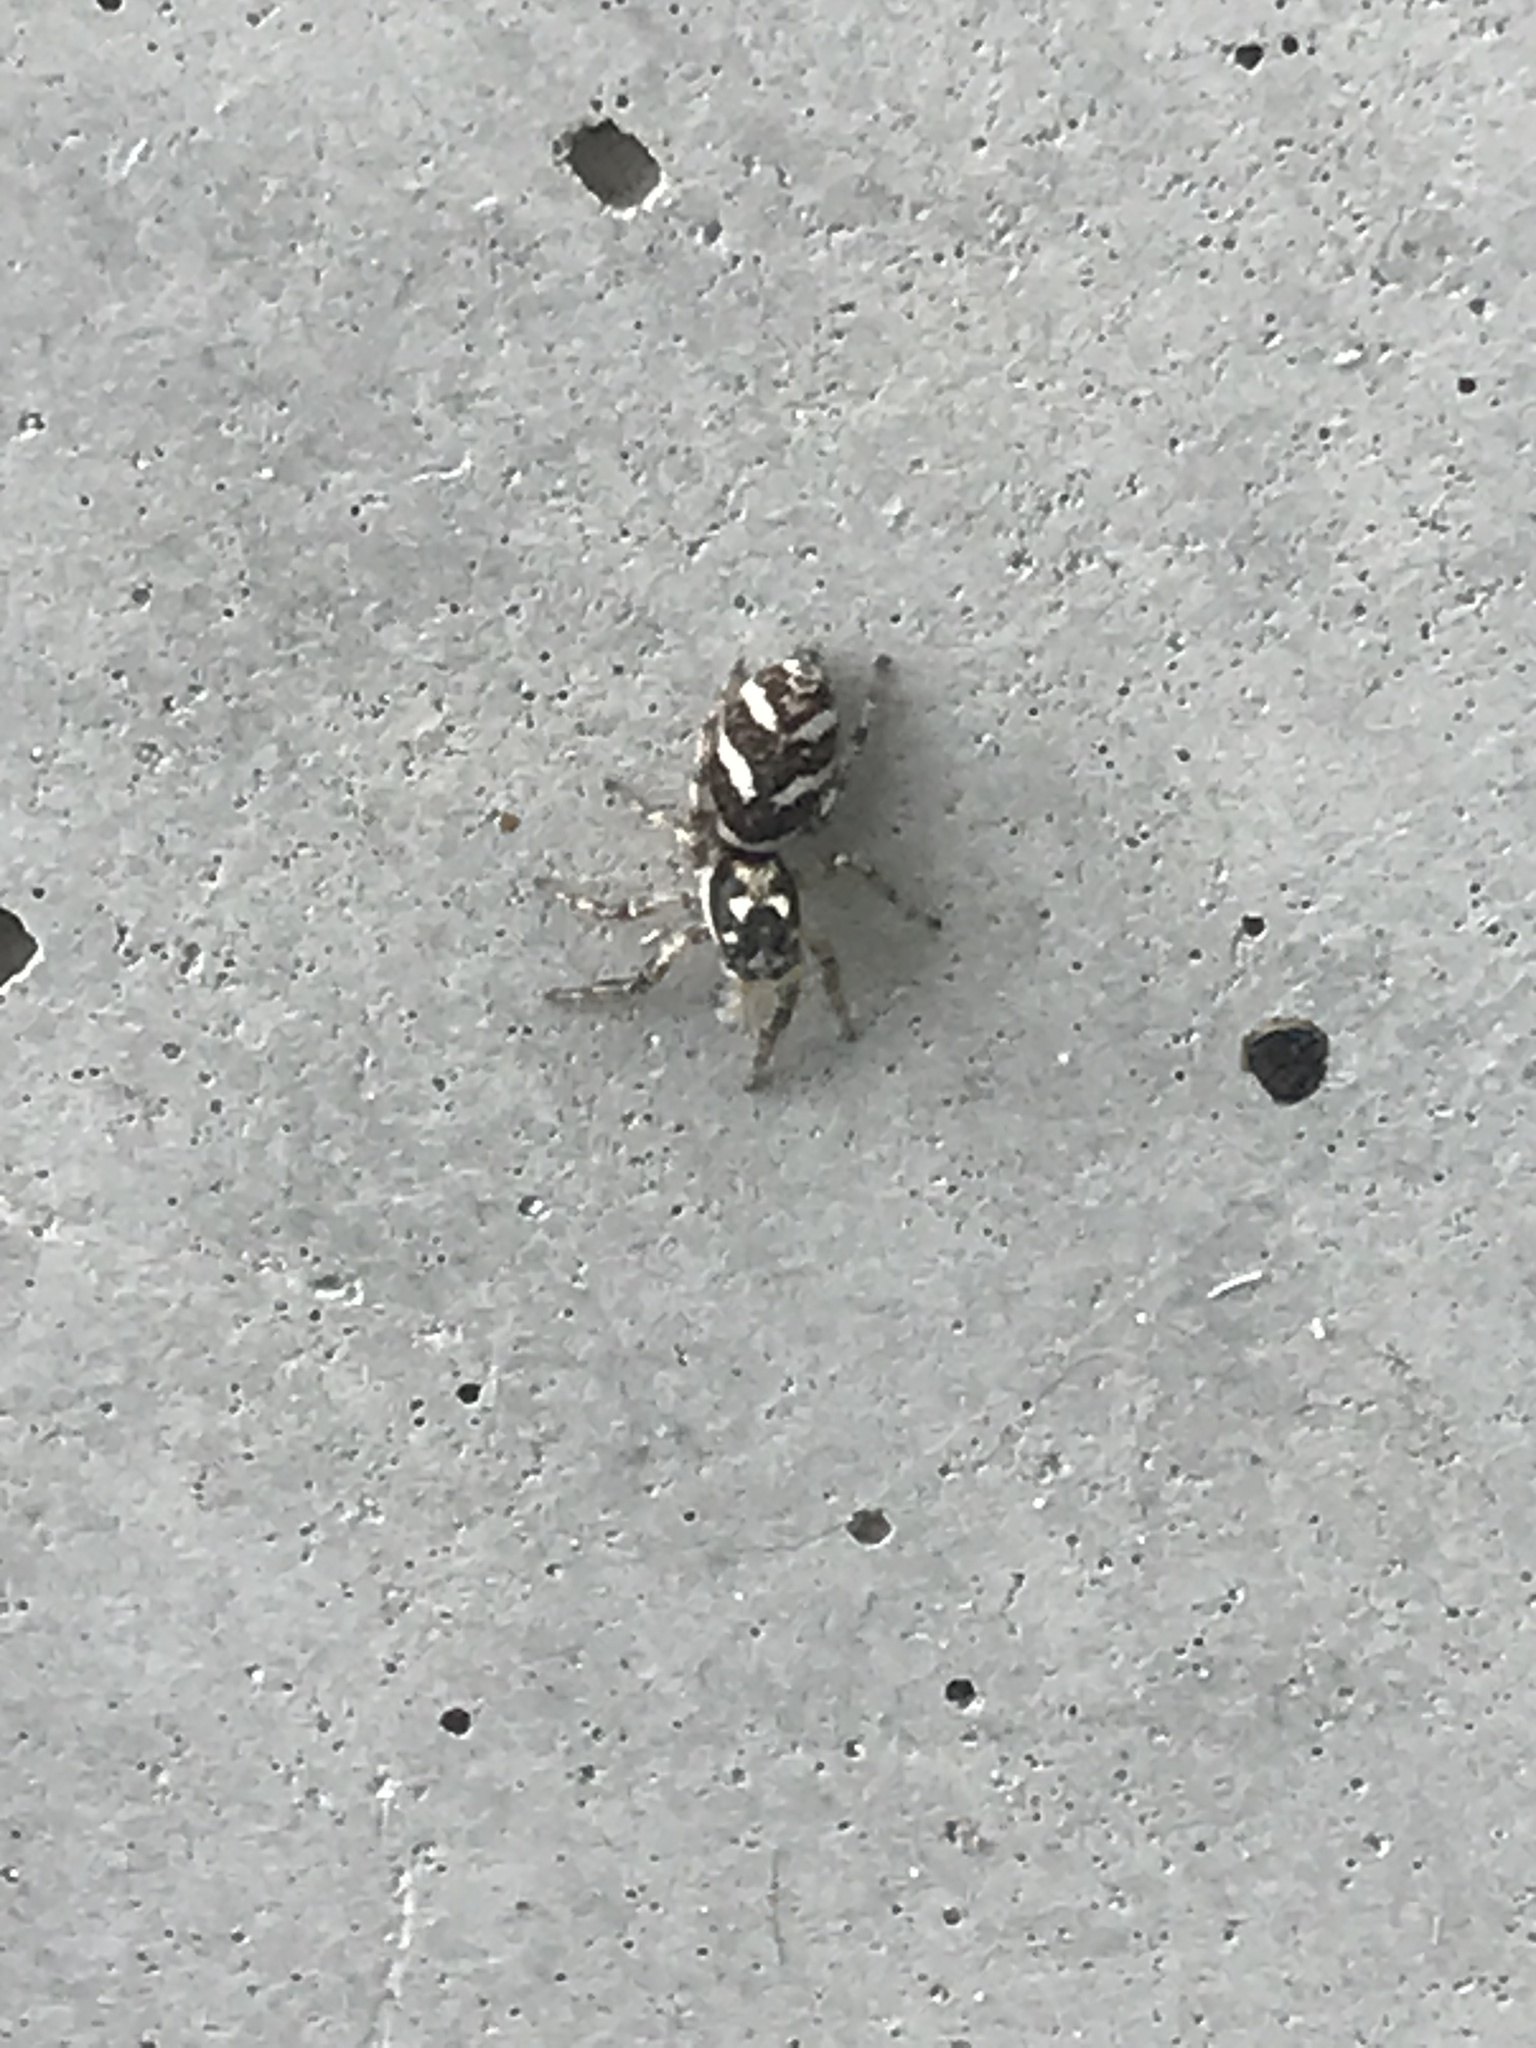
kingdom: Animalia
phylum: Arthropoda
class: Arachnida
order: Araneae
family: Salticidae
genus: Salticus
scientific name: Salticus scenicus
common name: Zebra jumper
